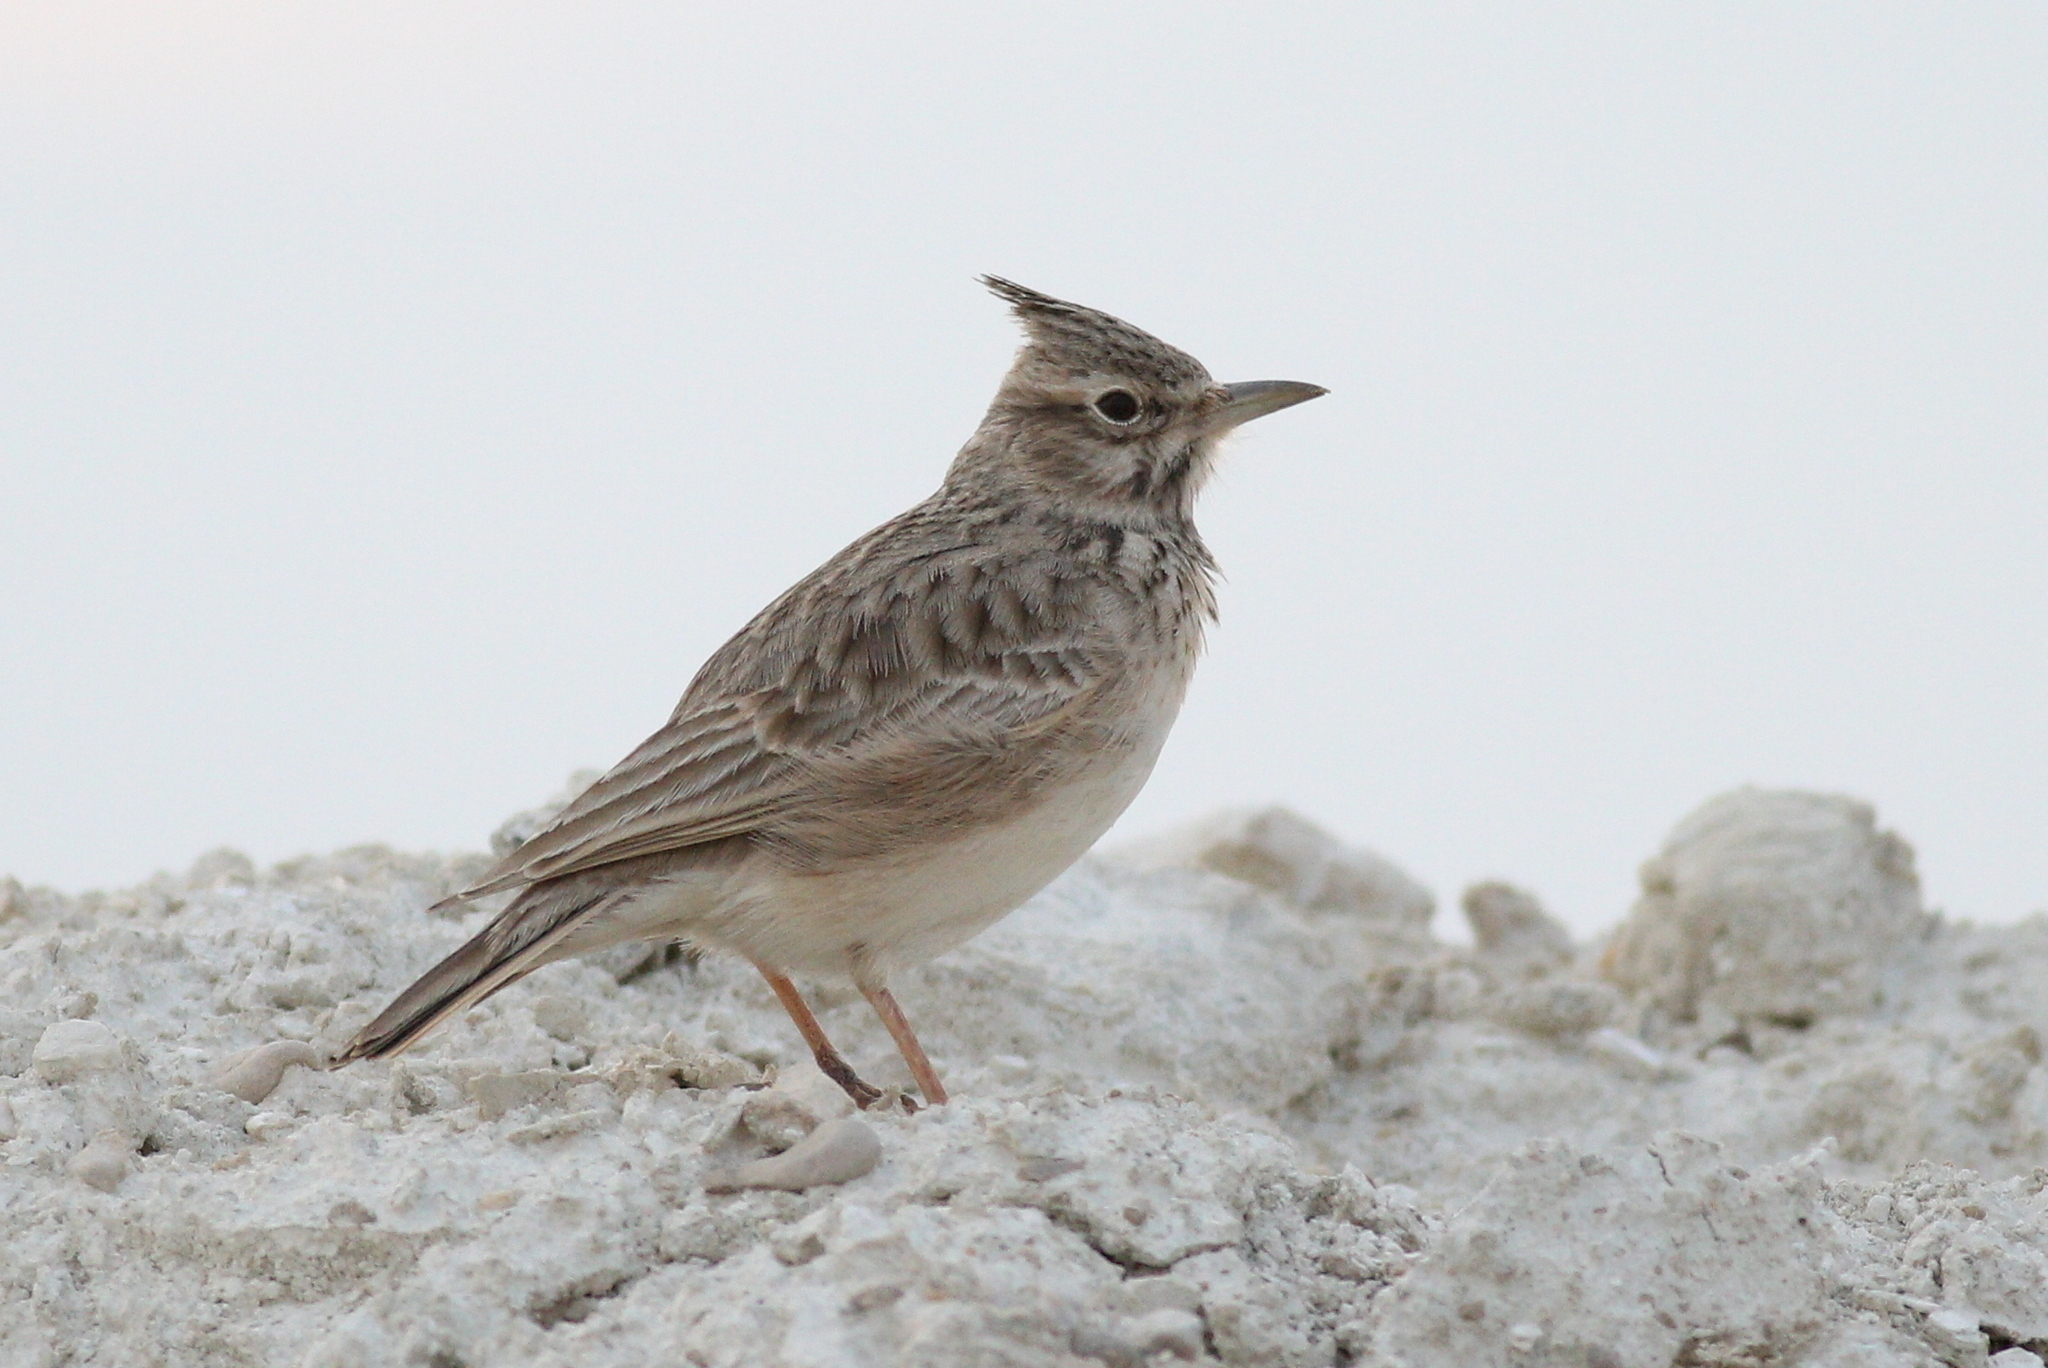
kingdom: Animalia
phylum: Chordata
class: Aves
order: Passeriformes
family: Alaudidae
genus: Galerida
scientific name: Galerida cristata
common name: Crested lark
